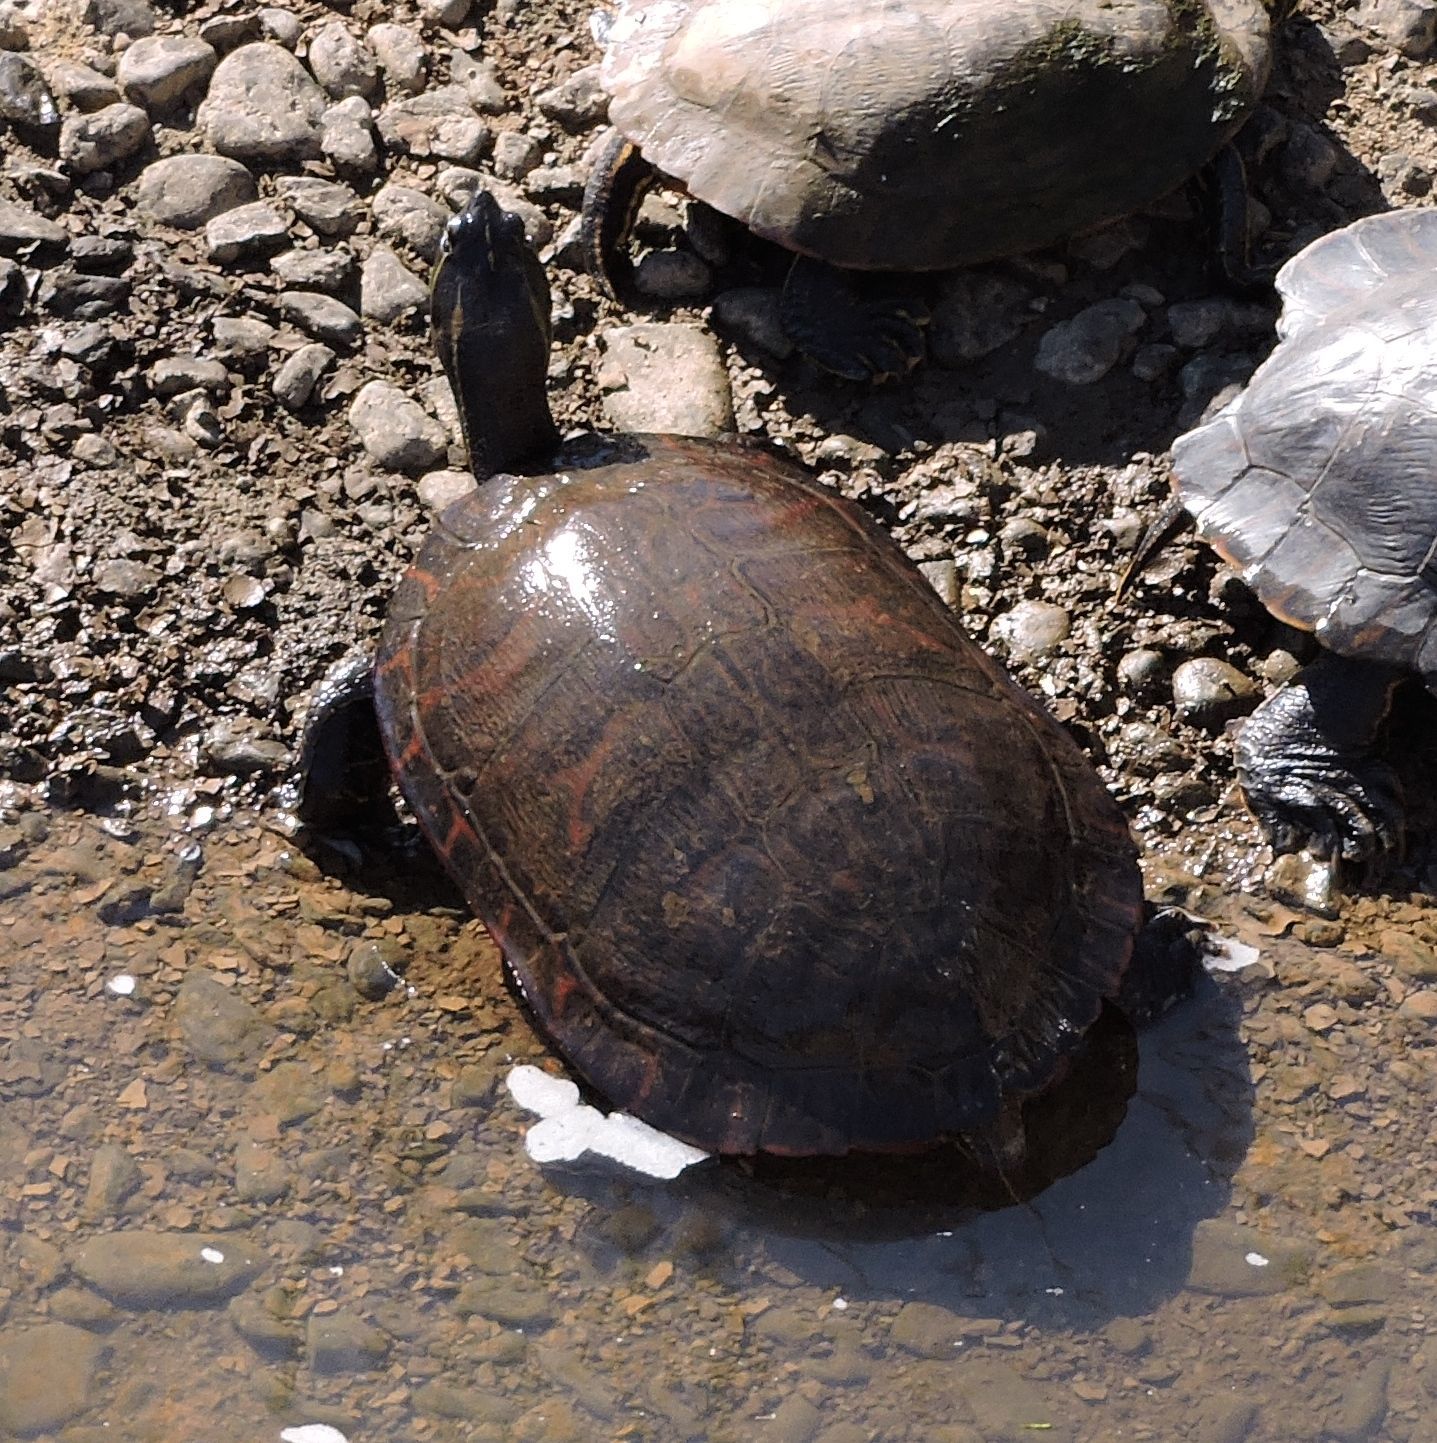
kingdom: Animalia
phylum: Chordata
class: Testudines
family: Emydidae
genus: Pseudemys
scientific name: Pseudemys rubriventris
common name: American red-bellied turtle
